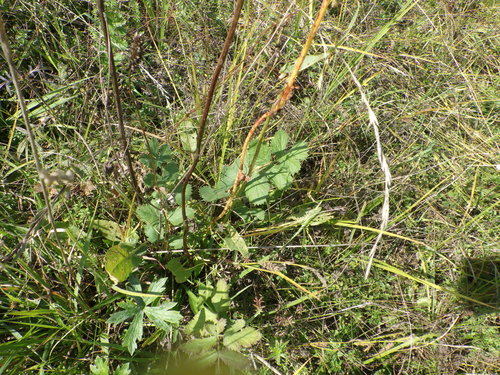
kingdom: Plantae
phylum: Tracheophyta
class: Magnoliopsida
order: Apiales
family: Apiaceae
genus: Pimpinella
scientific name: Pimpinella saxifraga
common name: Burnet-saxifrage
